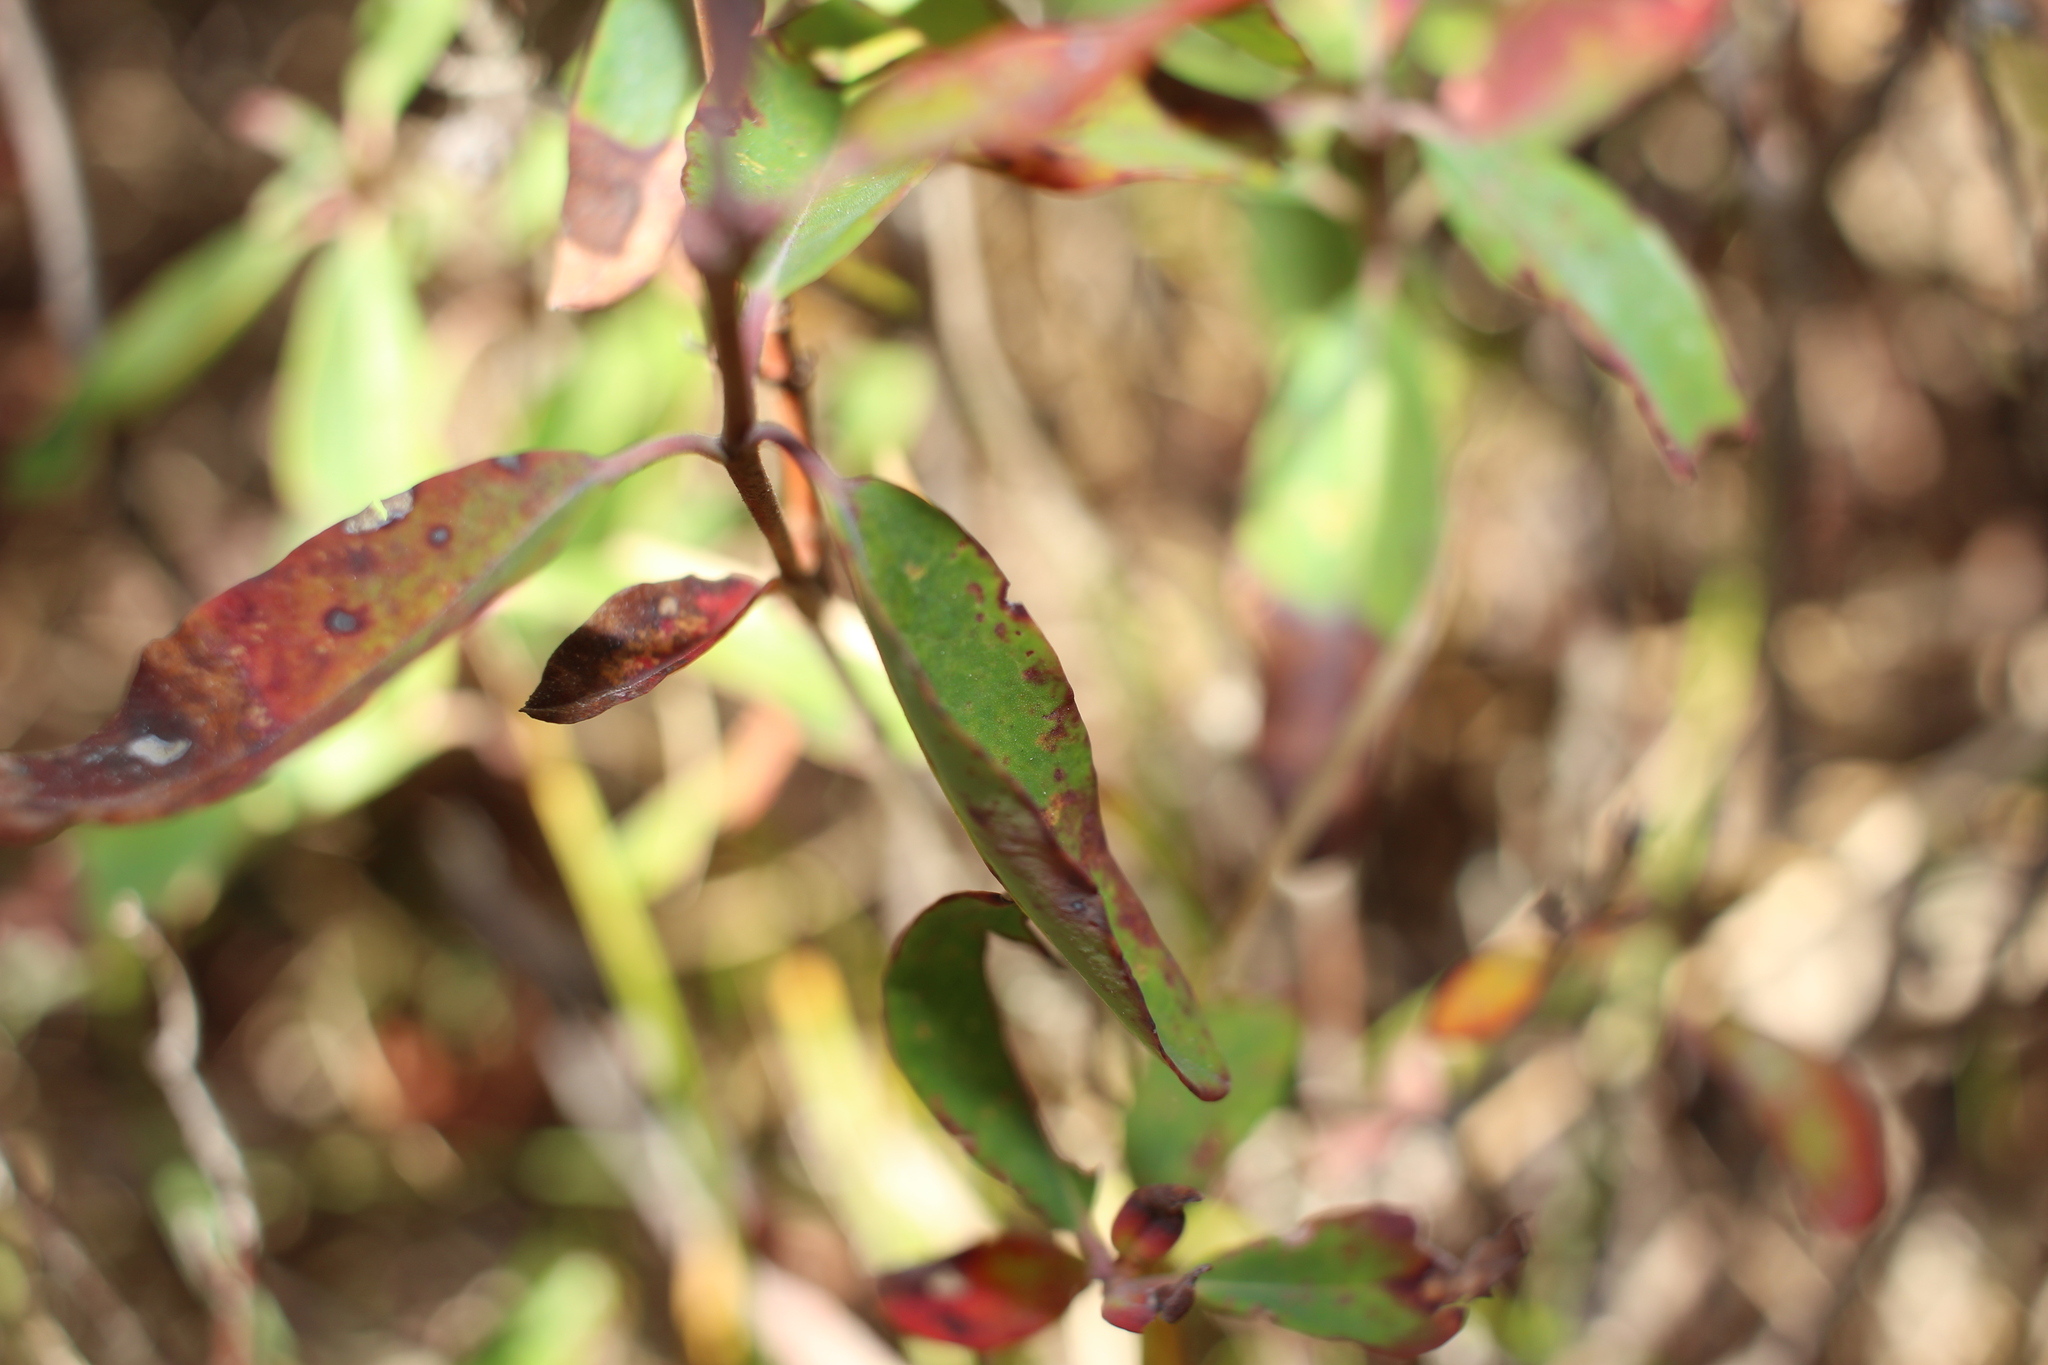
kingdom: Plantae
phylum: Tracheophyta
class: Magnoliopsida
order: Ericales
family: Ericaceae
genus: Kalmia
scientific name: Kalmia angustifolia
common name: Sheep-laurel
